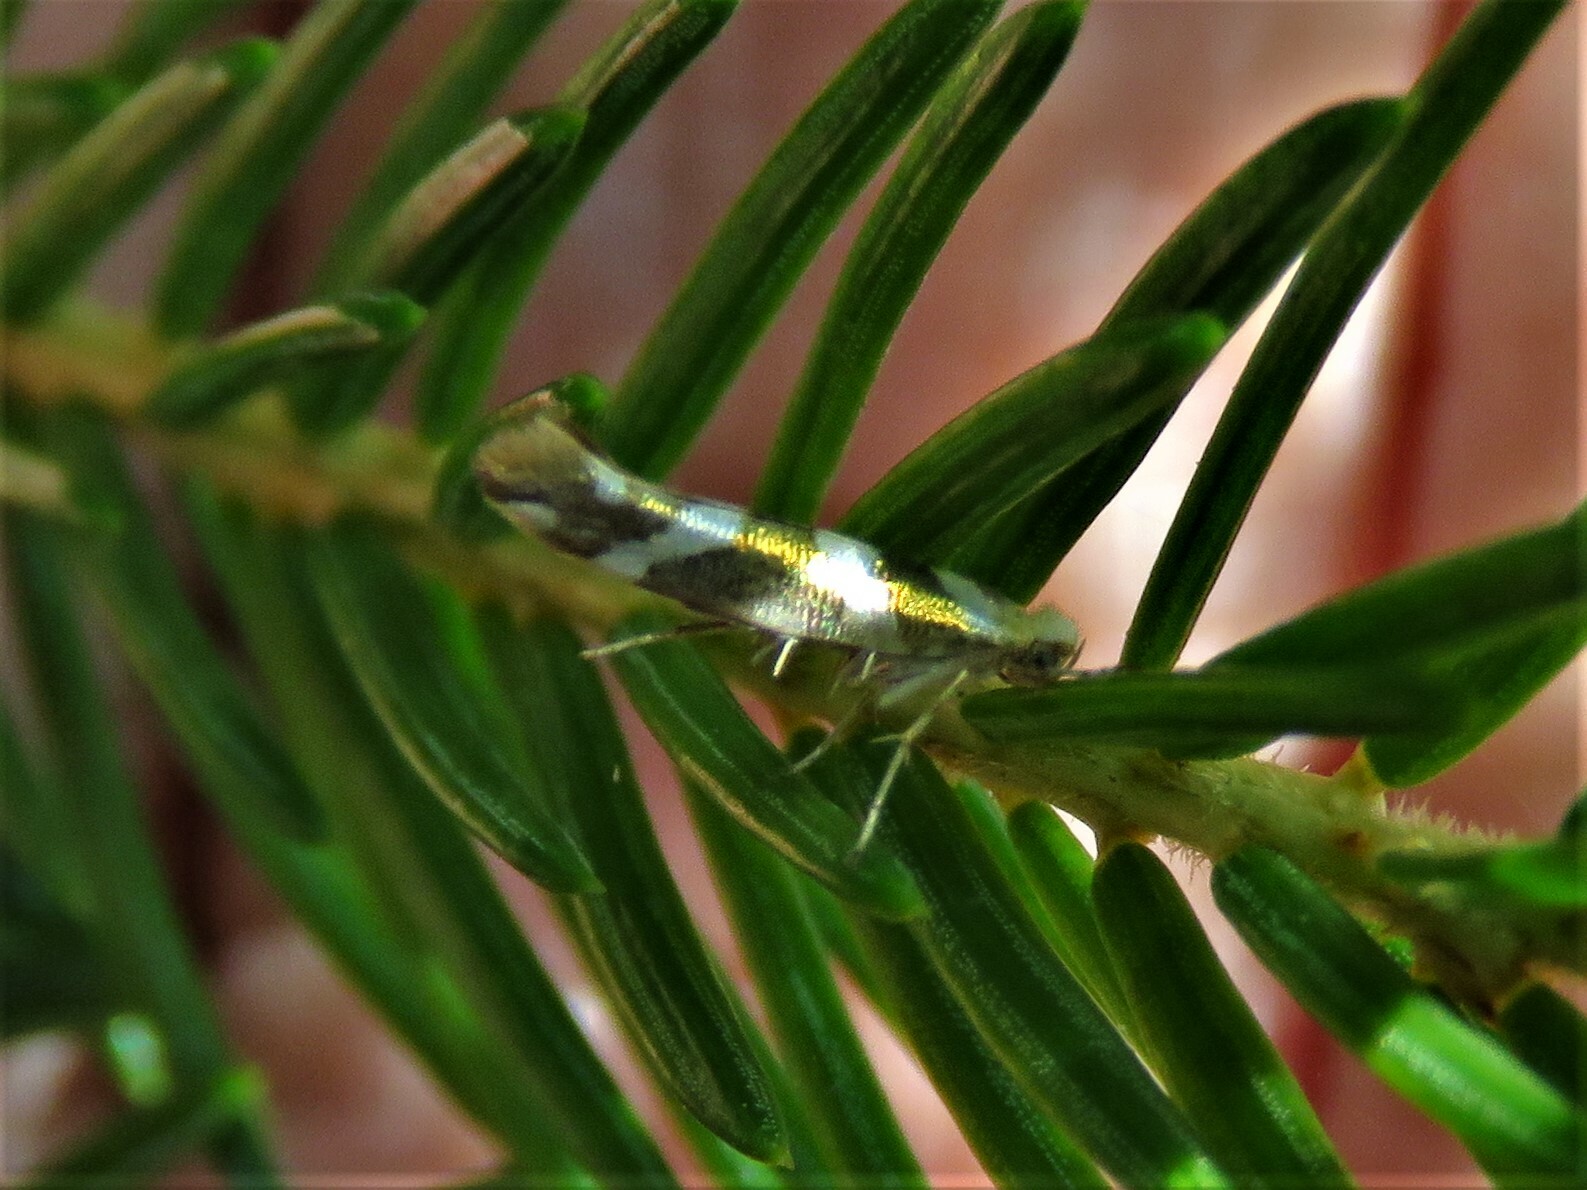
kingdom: Animalia
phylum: Arthropoda
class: Insecta
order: Lepidoptera
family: Argyresthiidae
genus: Argyresthia
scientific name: Argyresthia goedartella
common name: Golden argent
